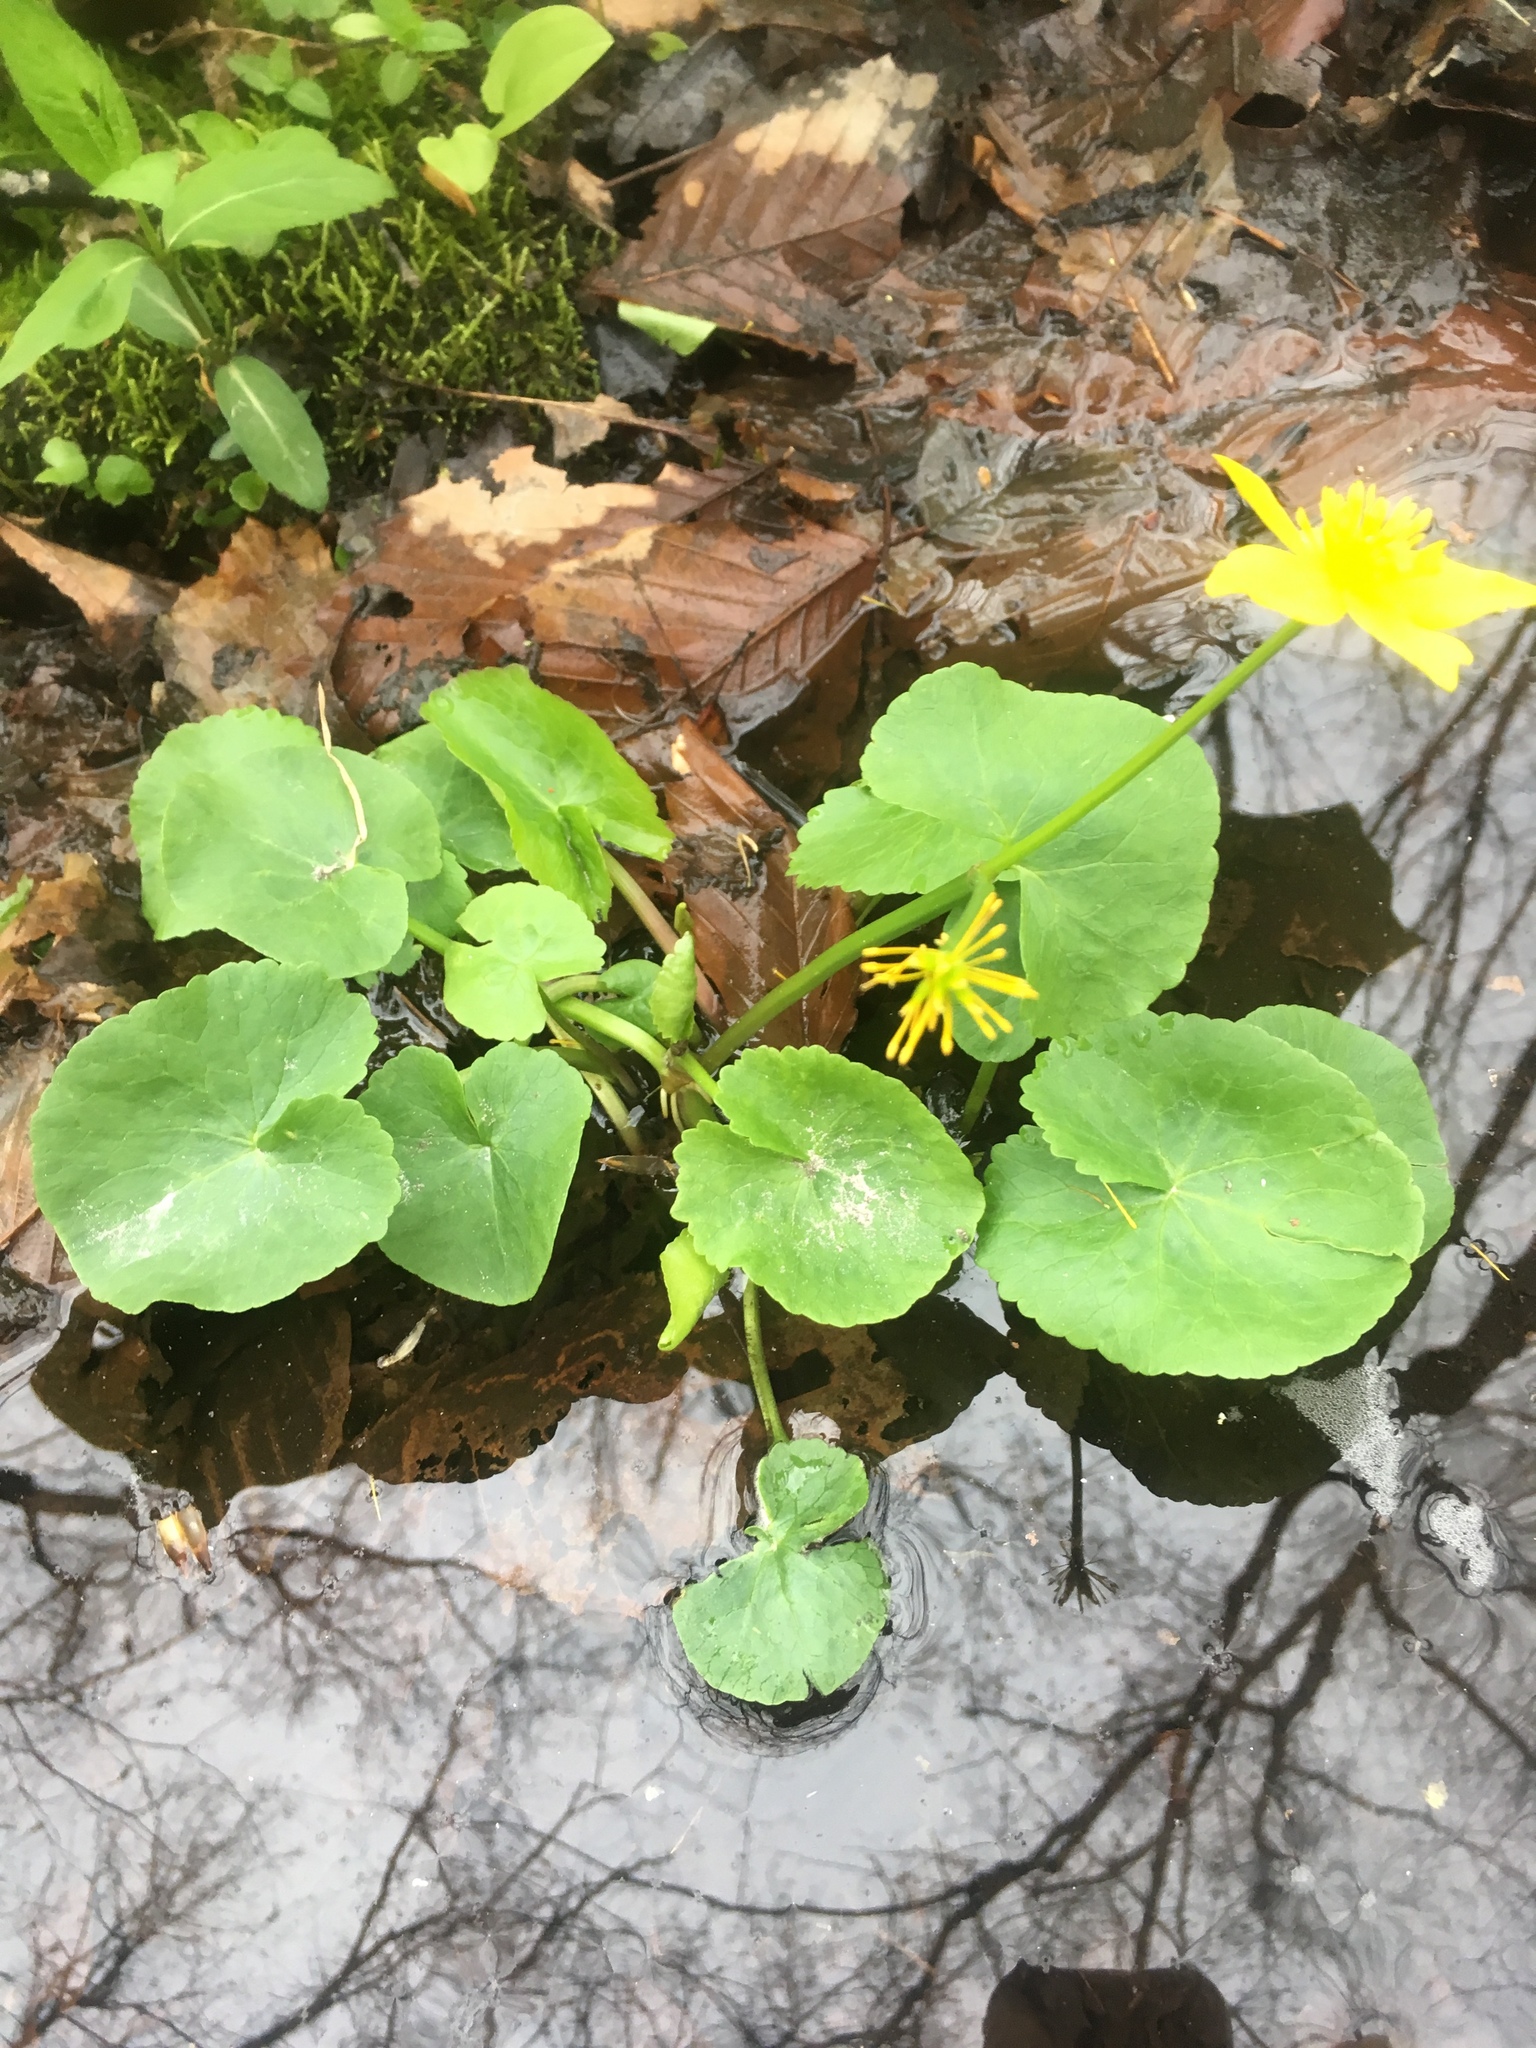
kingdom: Plantae
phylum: Tracheophyta
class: Magnoliopsida
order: Ranunculales
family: Ranunculaceae
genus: Caltha
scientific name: Caltha palustris
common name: Marsh marigold
